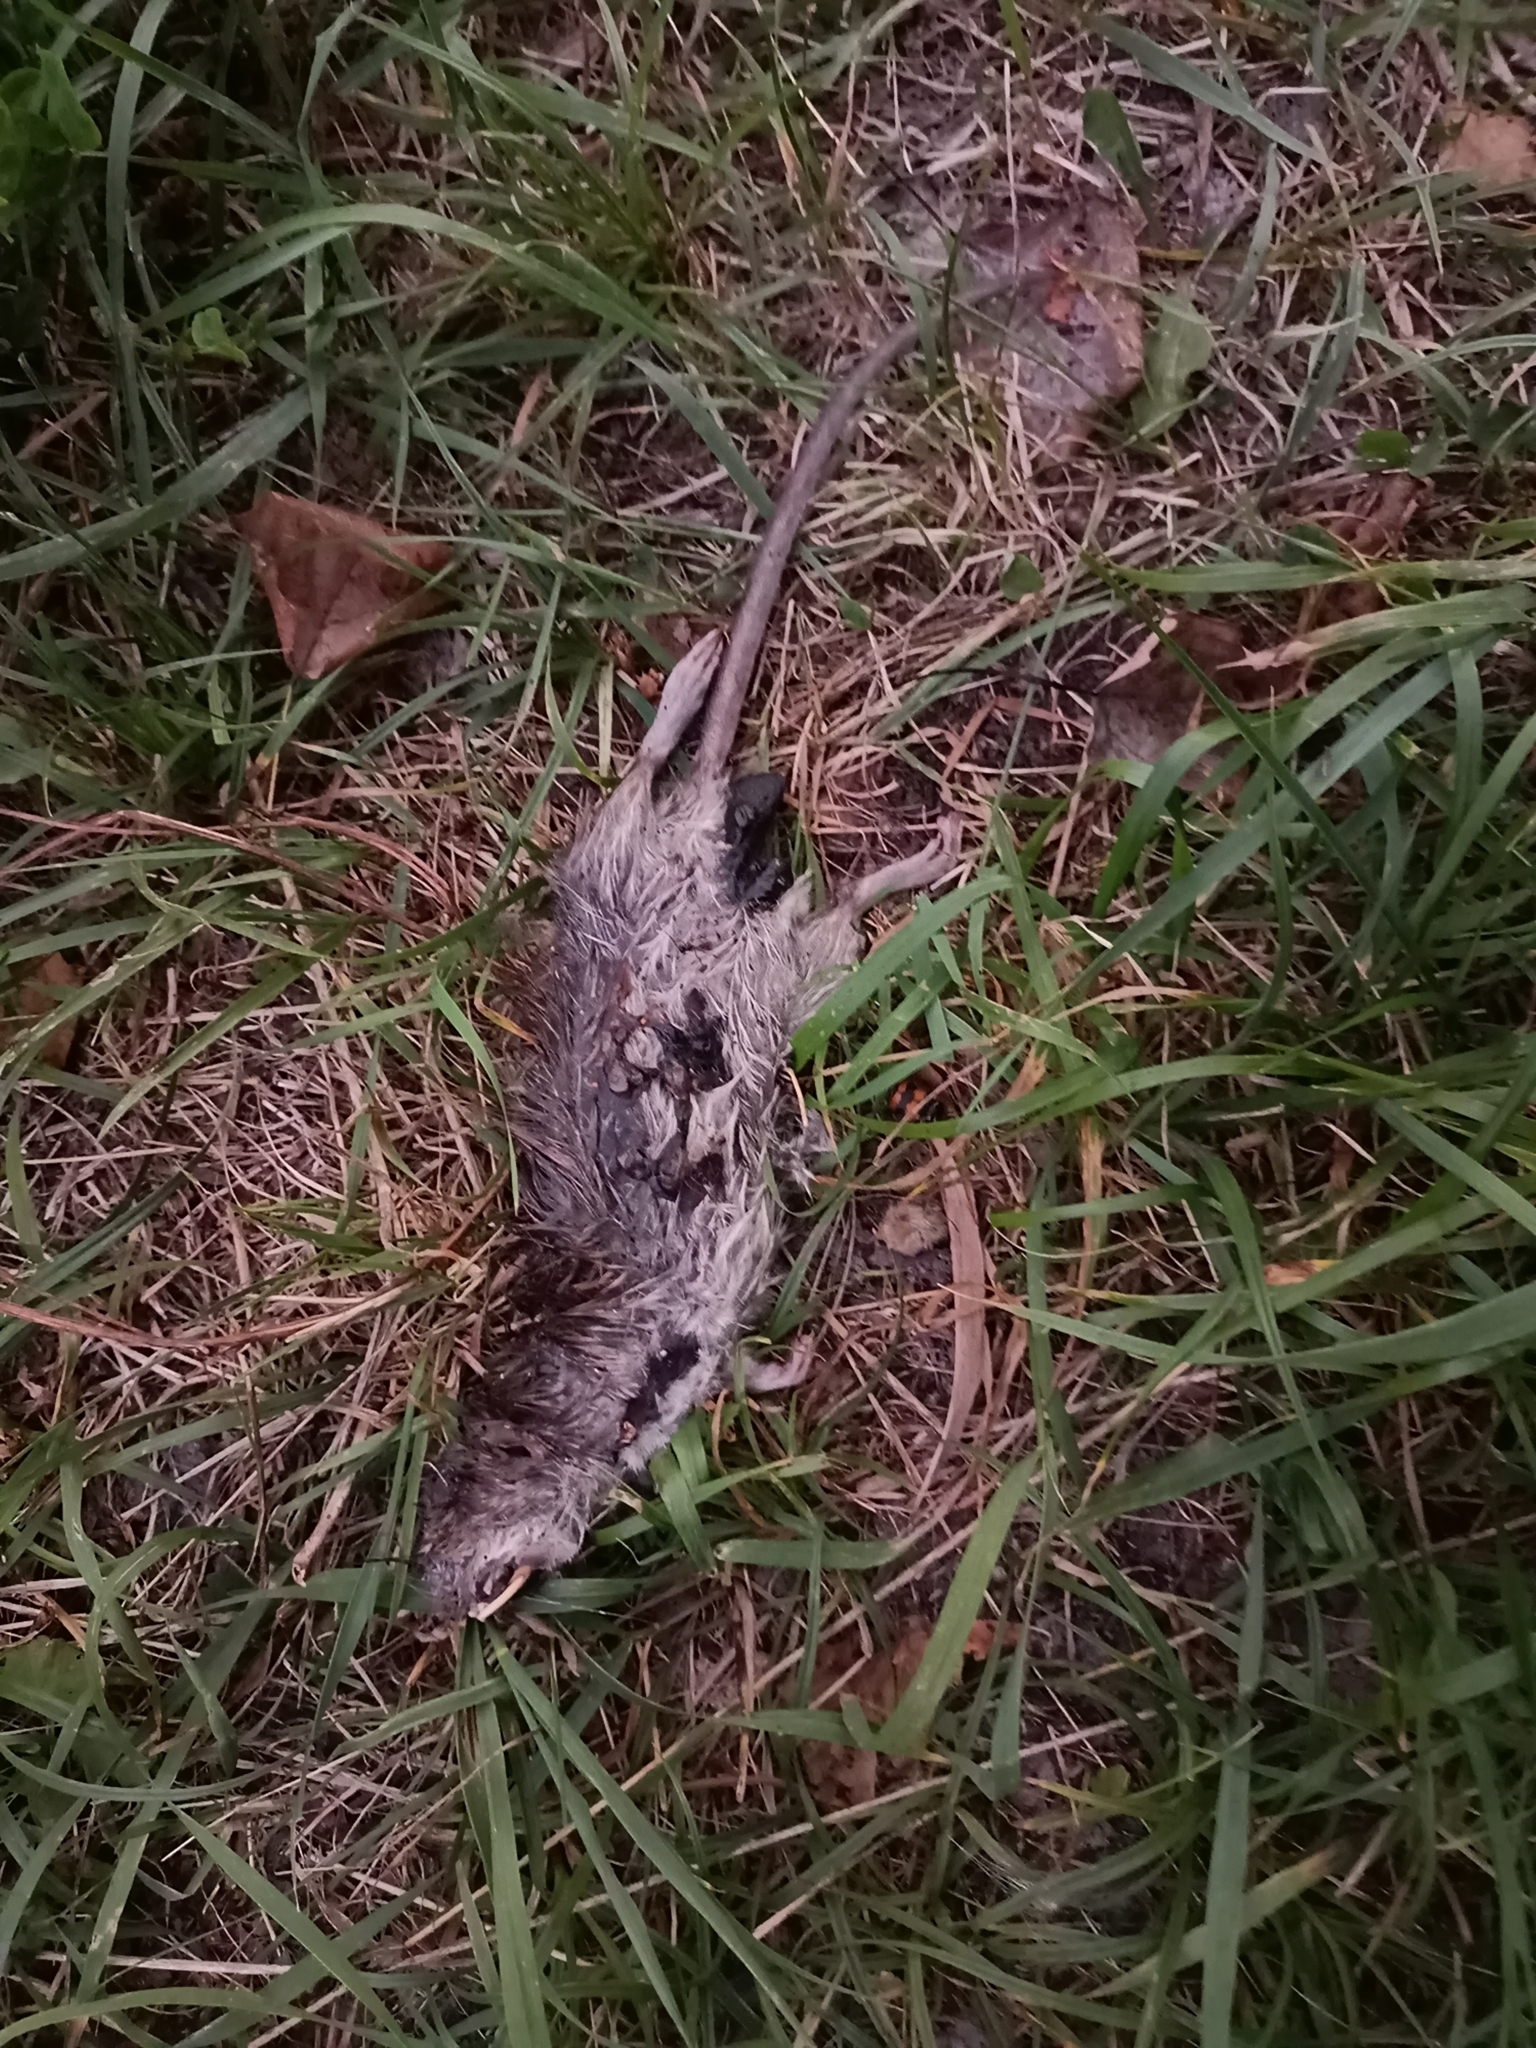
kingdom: Animalia
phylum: Chordata
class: Mammalia
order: Rodentia
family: Muridae
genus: Rattus
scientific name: Rattus norvegicus
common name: Brown rat
